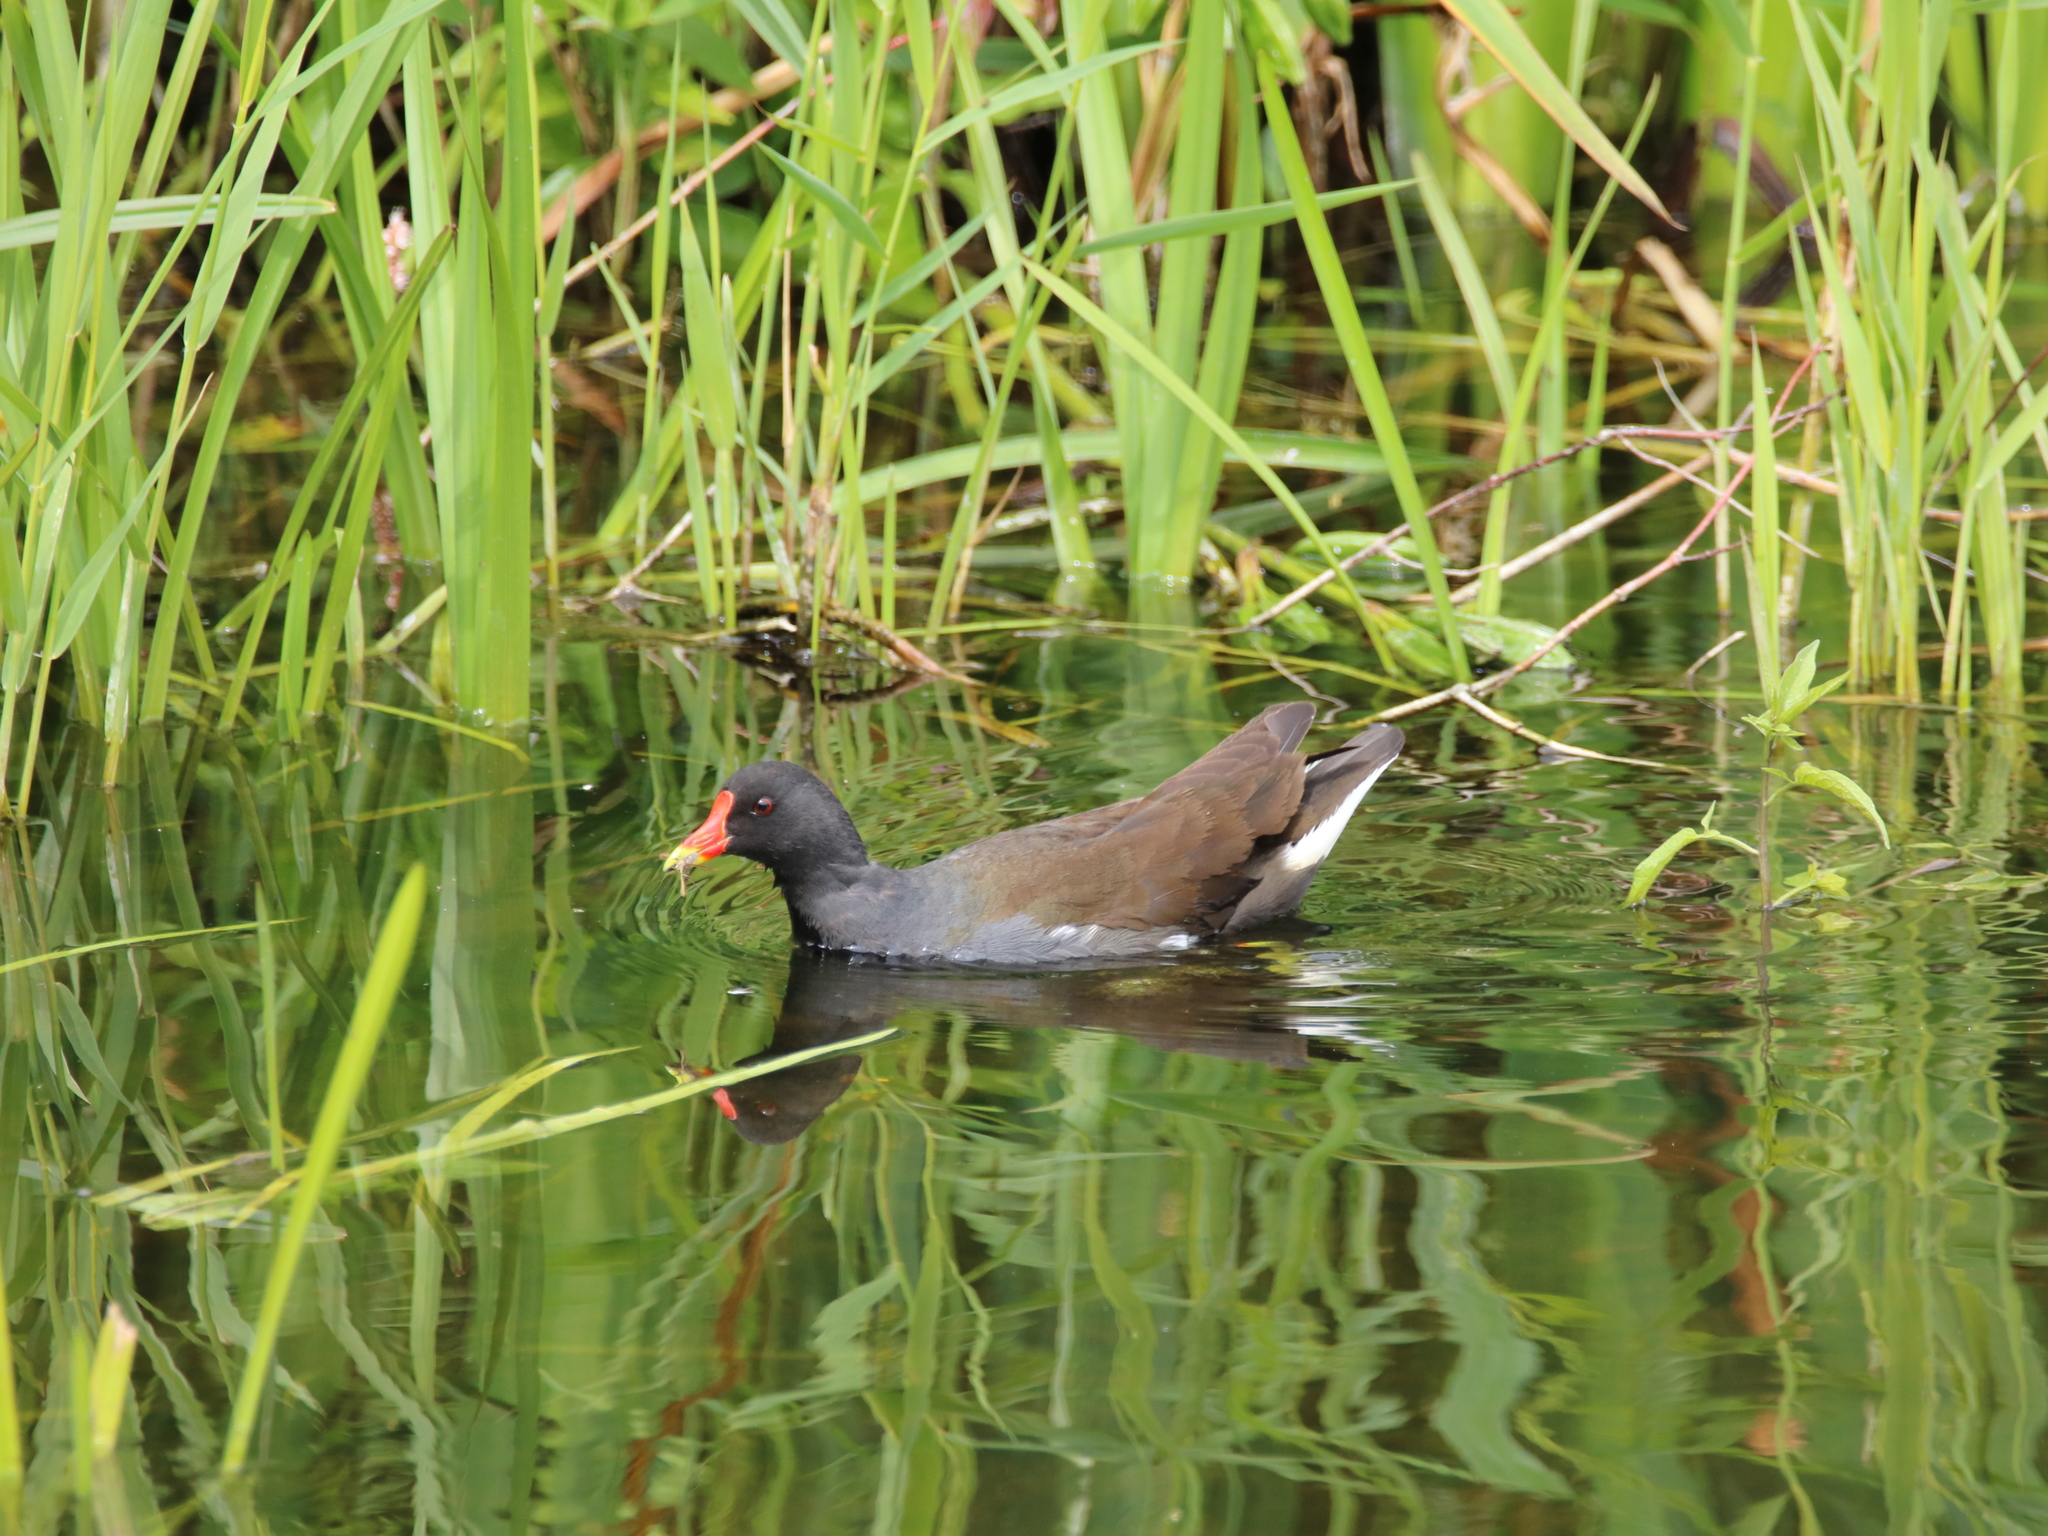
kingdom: Animalia
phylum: Chordata
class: Aves
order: Gruiformes
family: Rallidae
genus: Gallinula
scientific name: Gallinula chloropus
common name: Common moorhen
